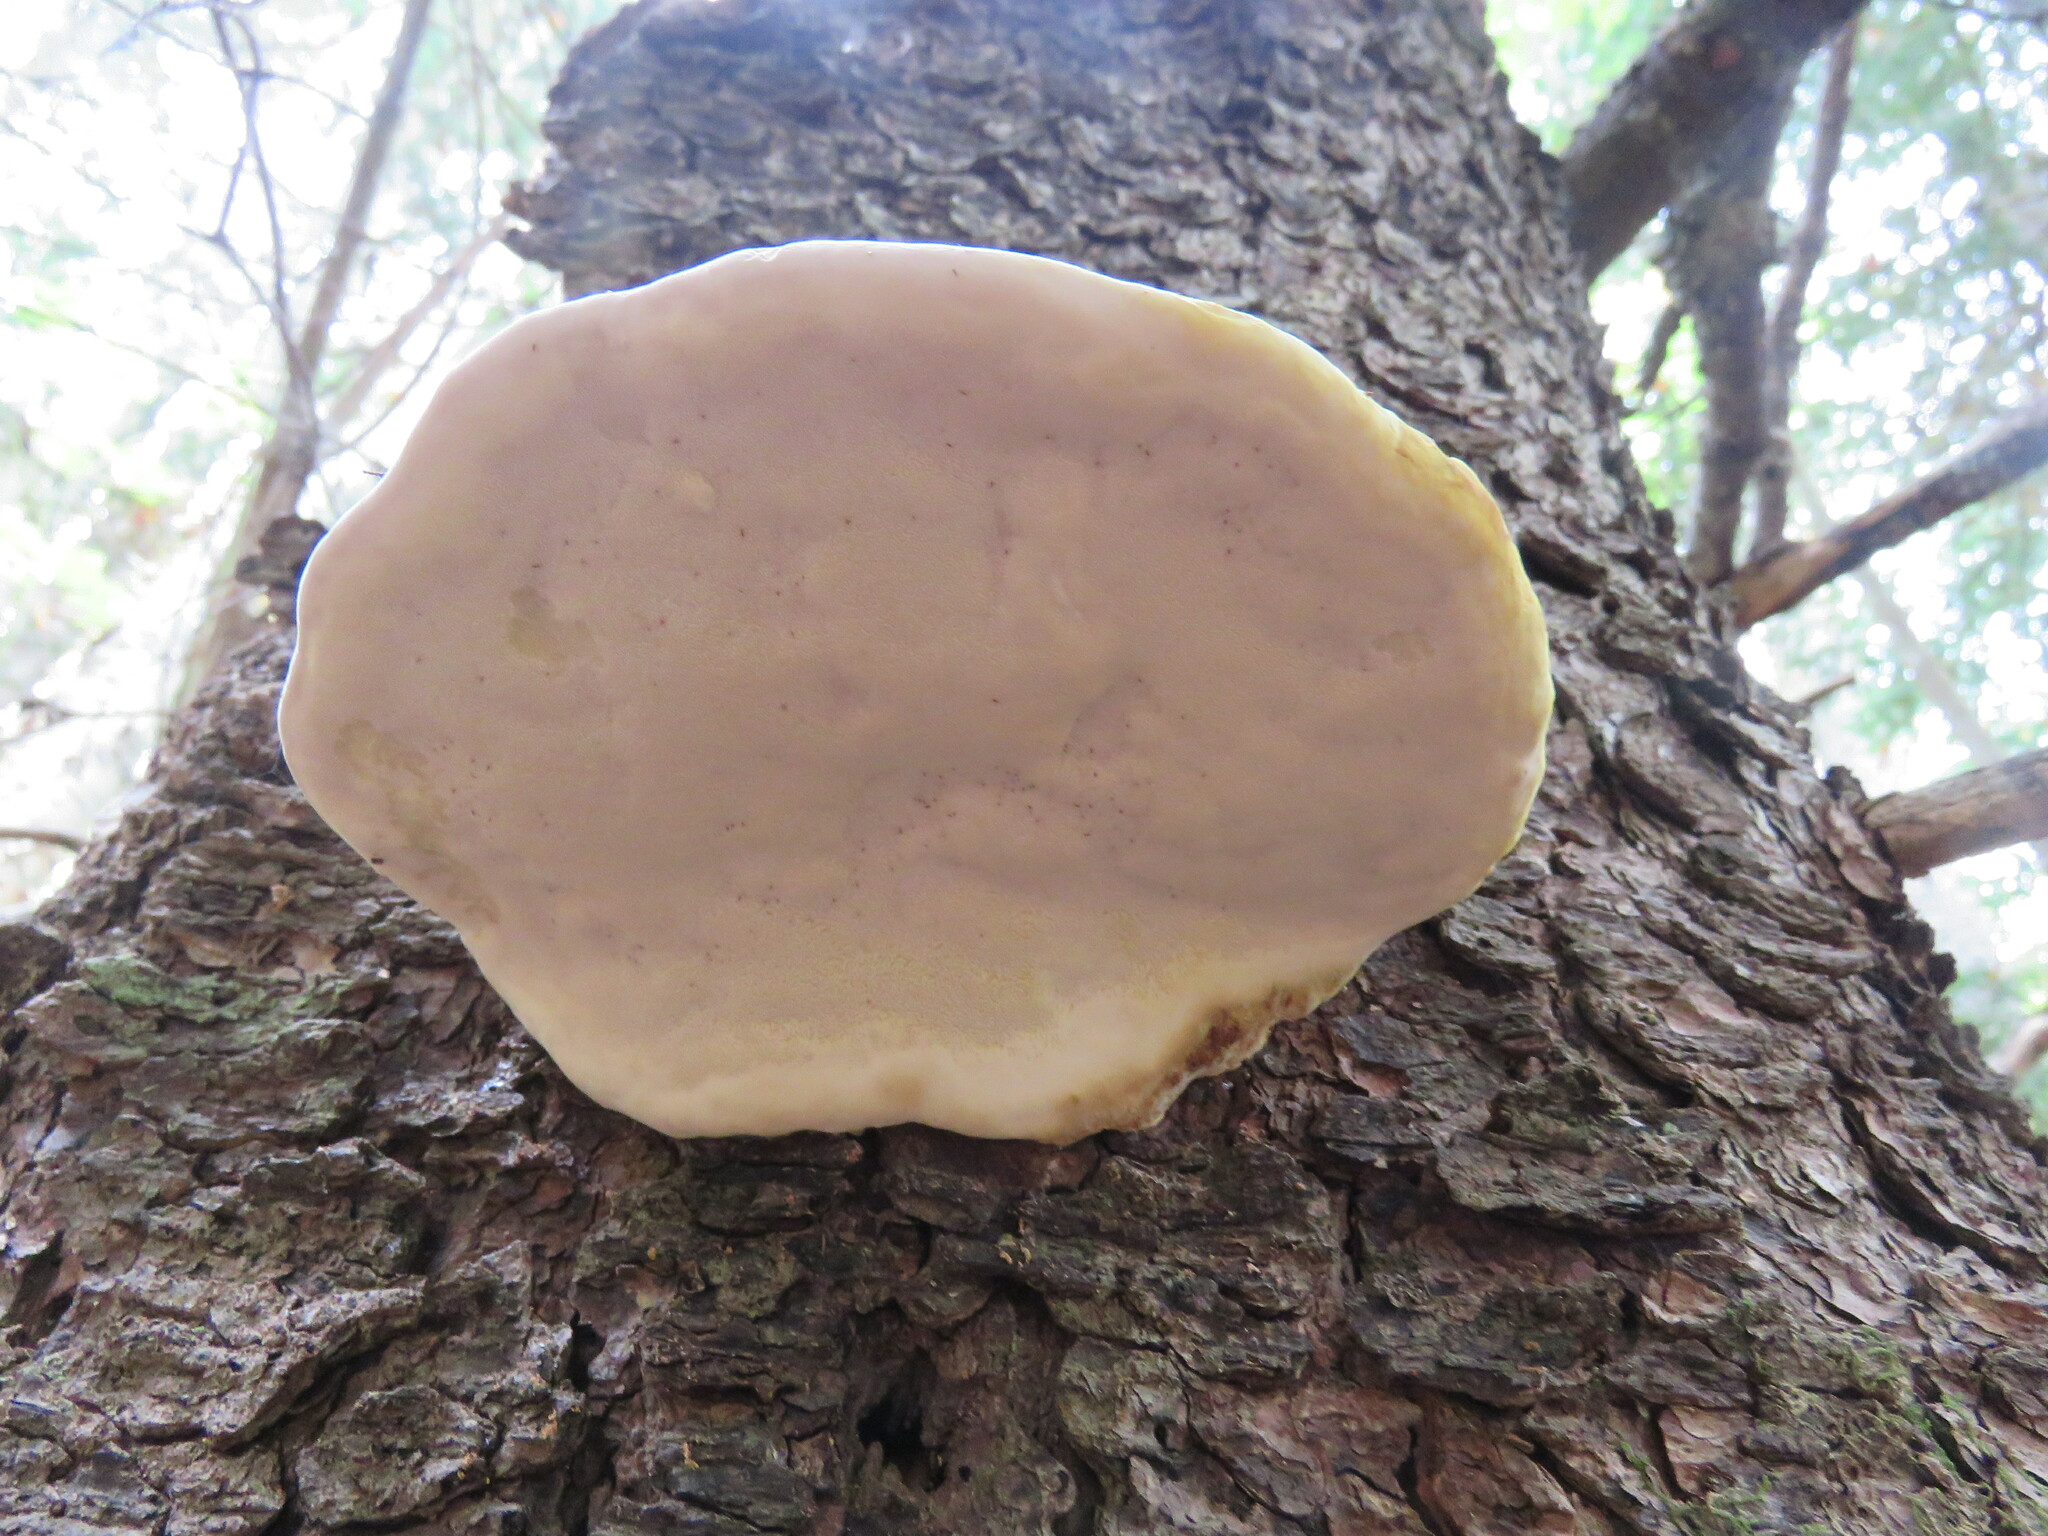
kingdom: Fungi
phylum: Basidiomycota
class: Agaricomycetes
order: Polyporales
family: Fomitopsidaceae
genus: Fomitopsis
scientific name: Fomitopsis mounceae
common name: Northern red belt
